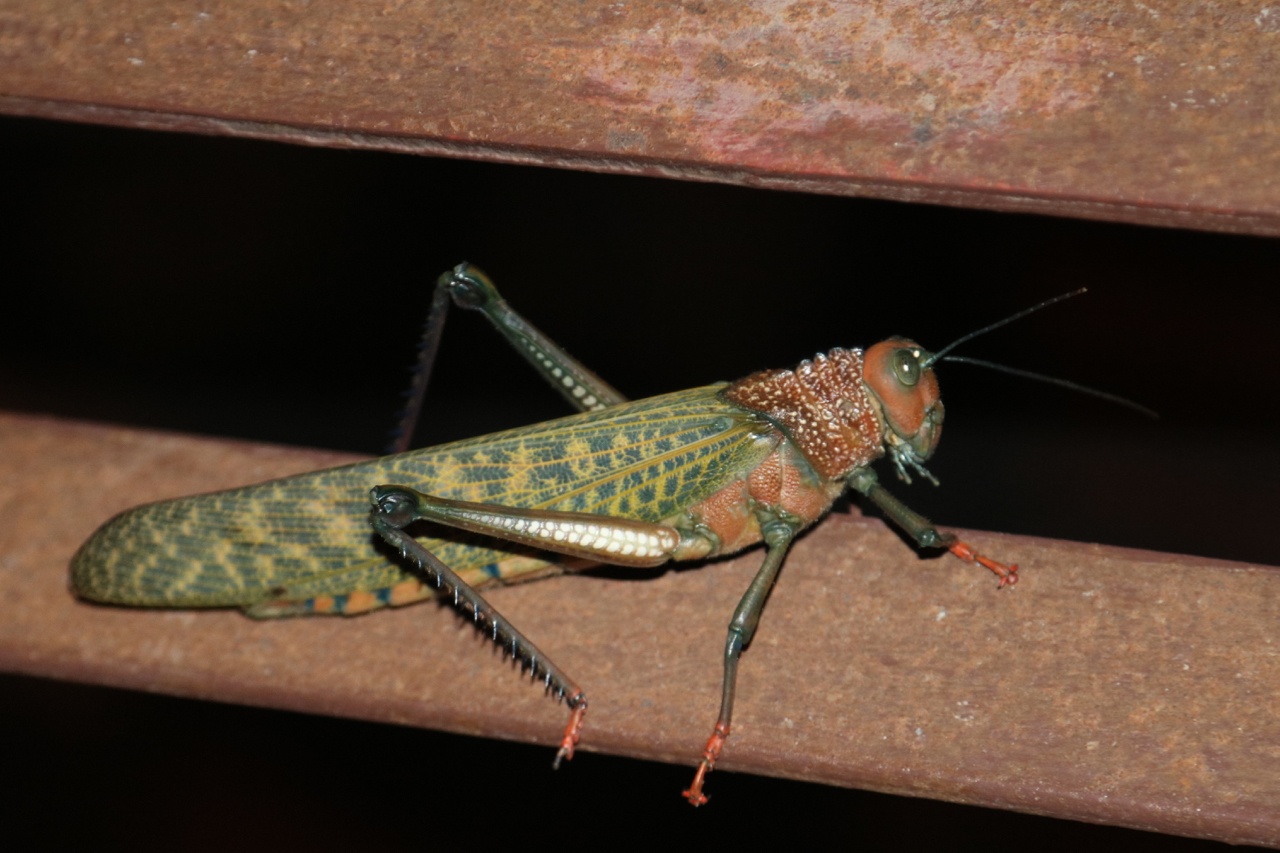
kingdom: Animalia
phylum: Arthropoda
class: Insecta
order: Orthoptera
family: Romaleidae
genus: Tropidacris
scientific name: Tropidacris cristata
